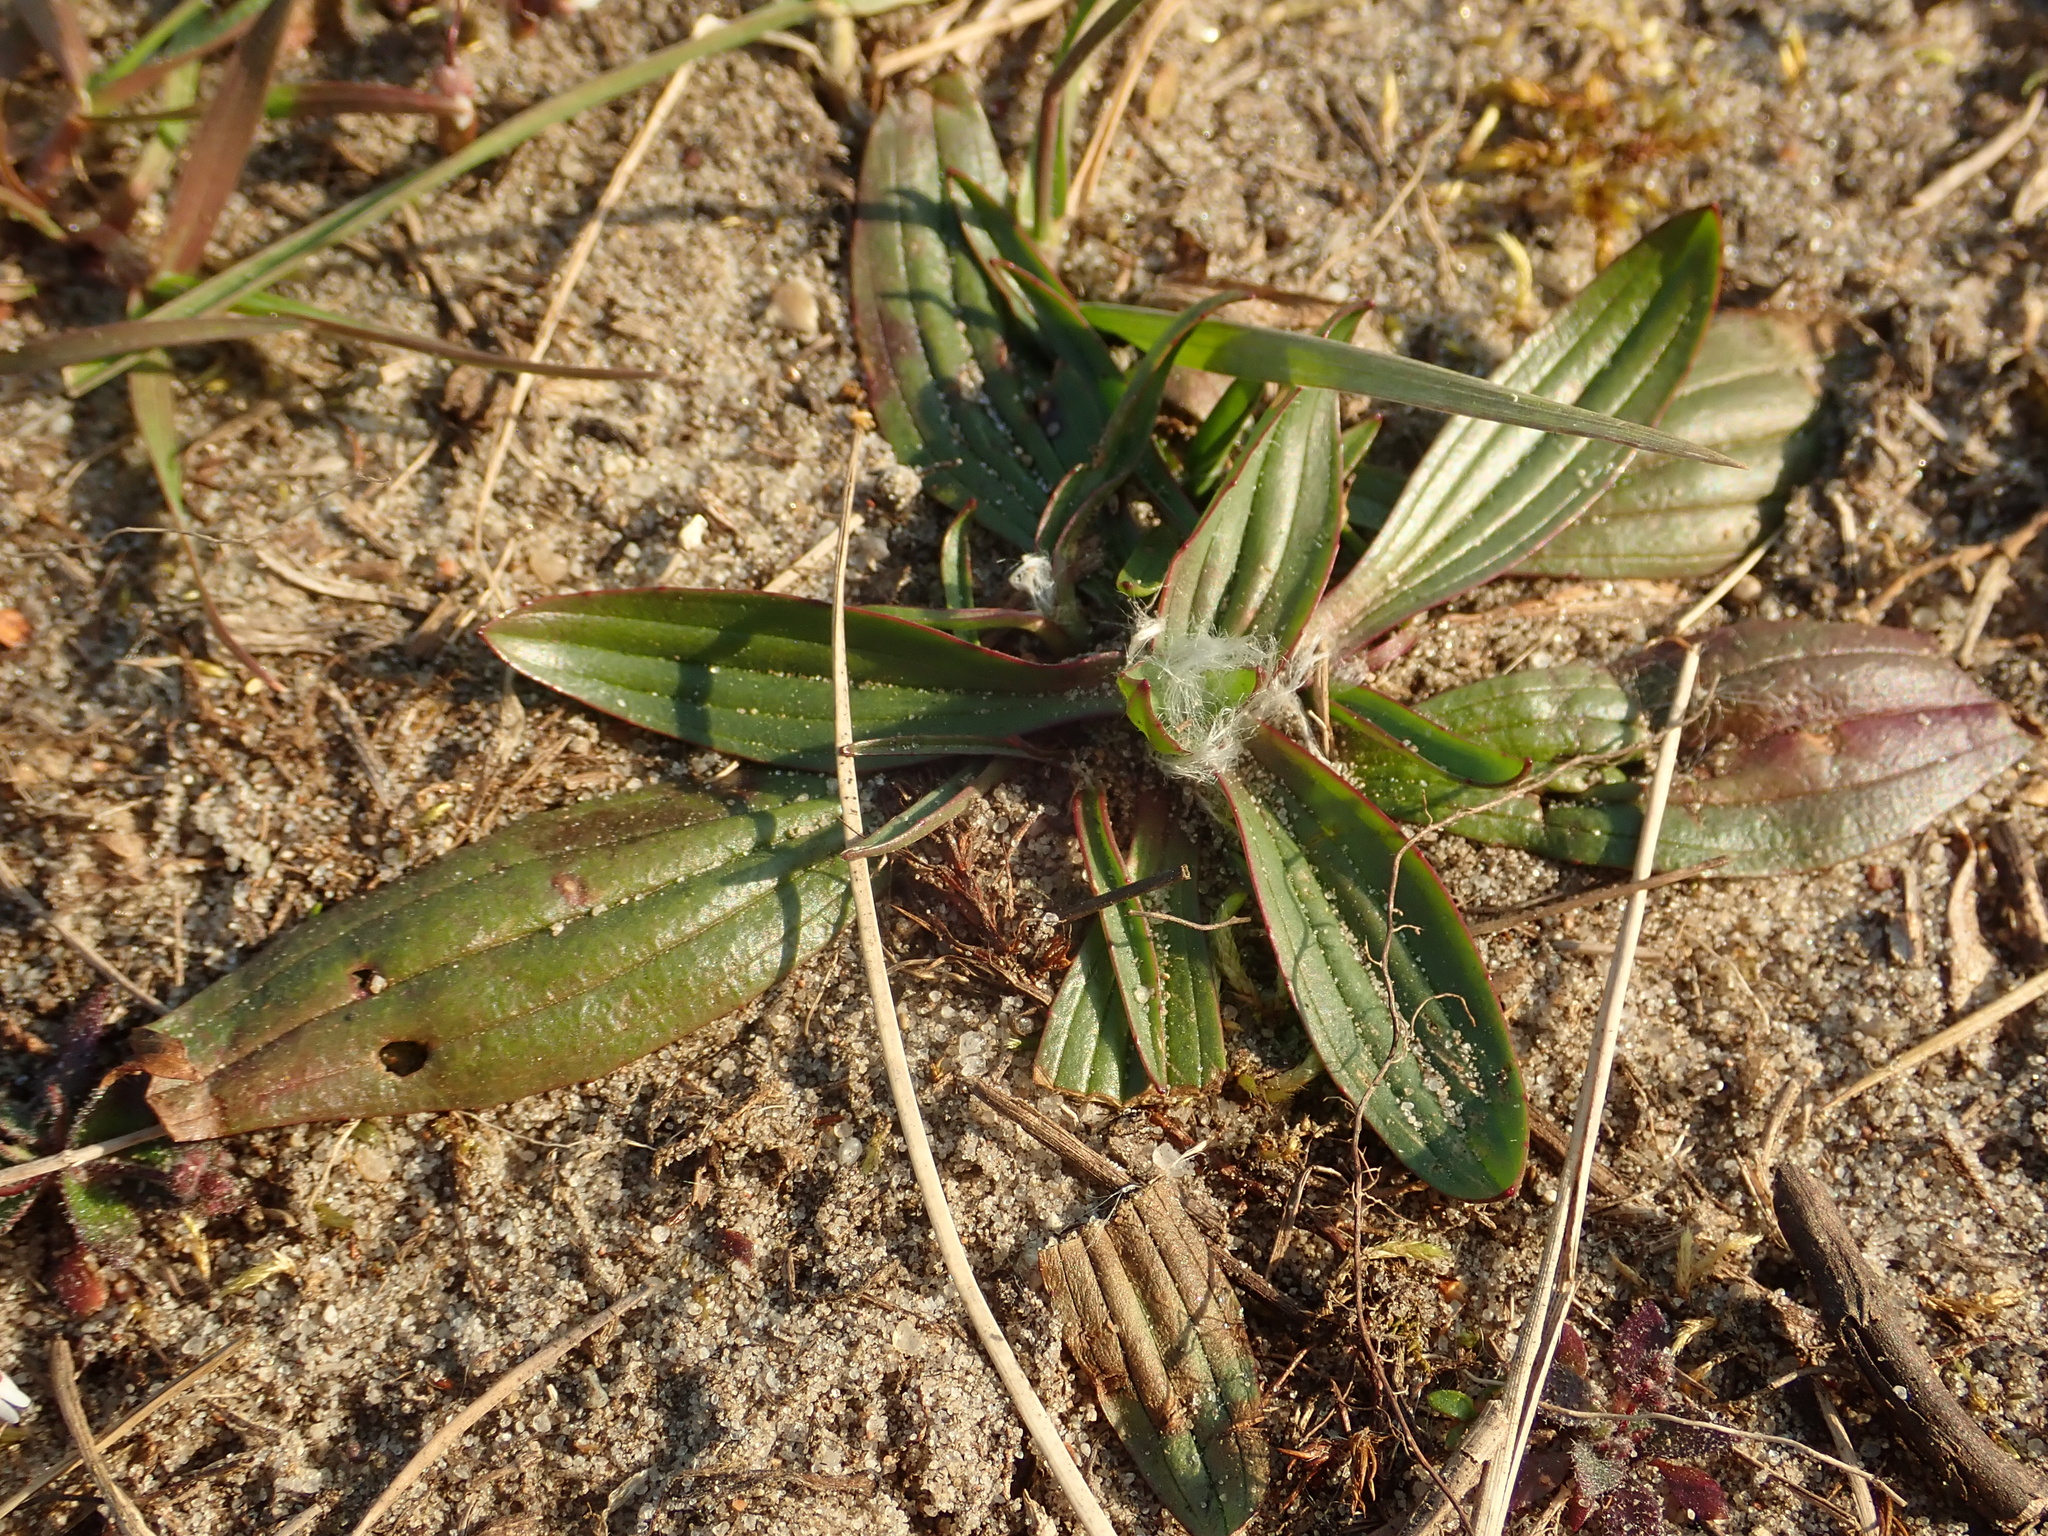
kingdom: Plantae
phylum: Tracheophyta
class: Magnoliopsida
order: Lamiales
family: Plantaginaceae
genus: Plantago
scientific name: Plantago lanceolata
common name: Ribwort plantain
